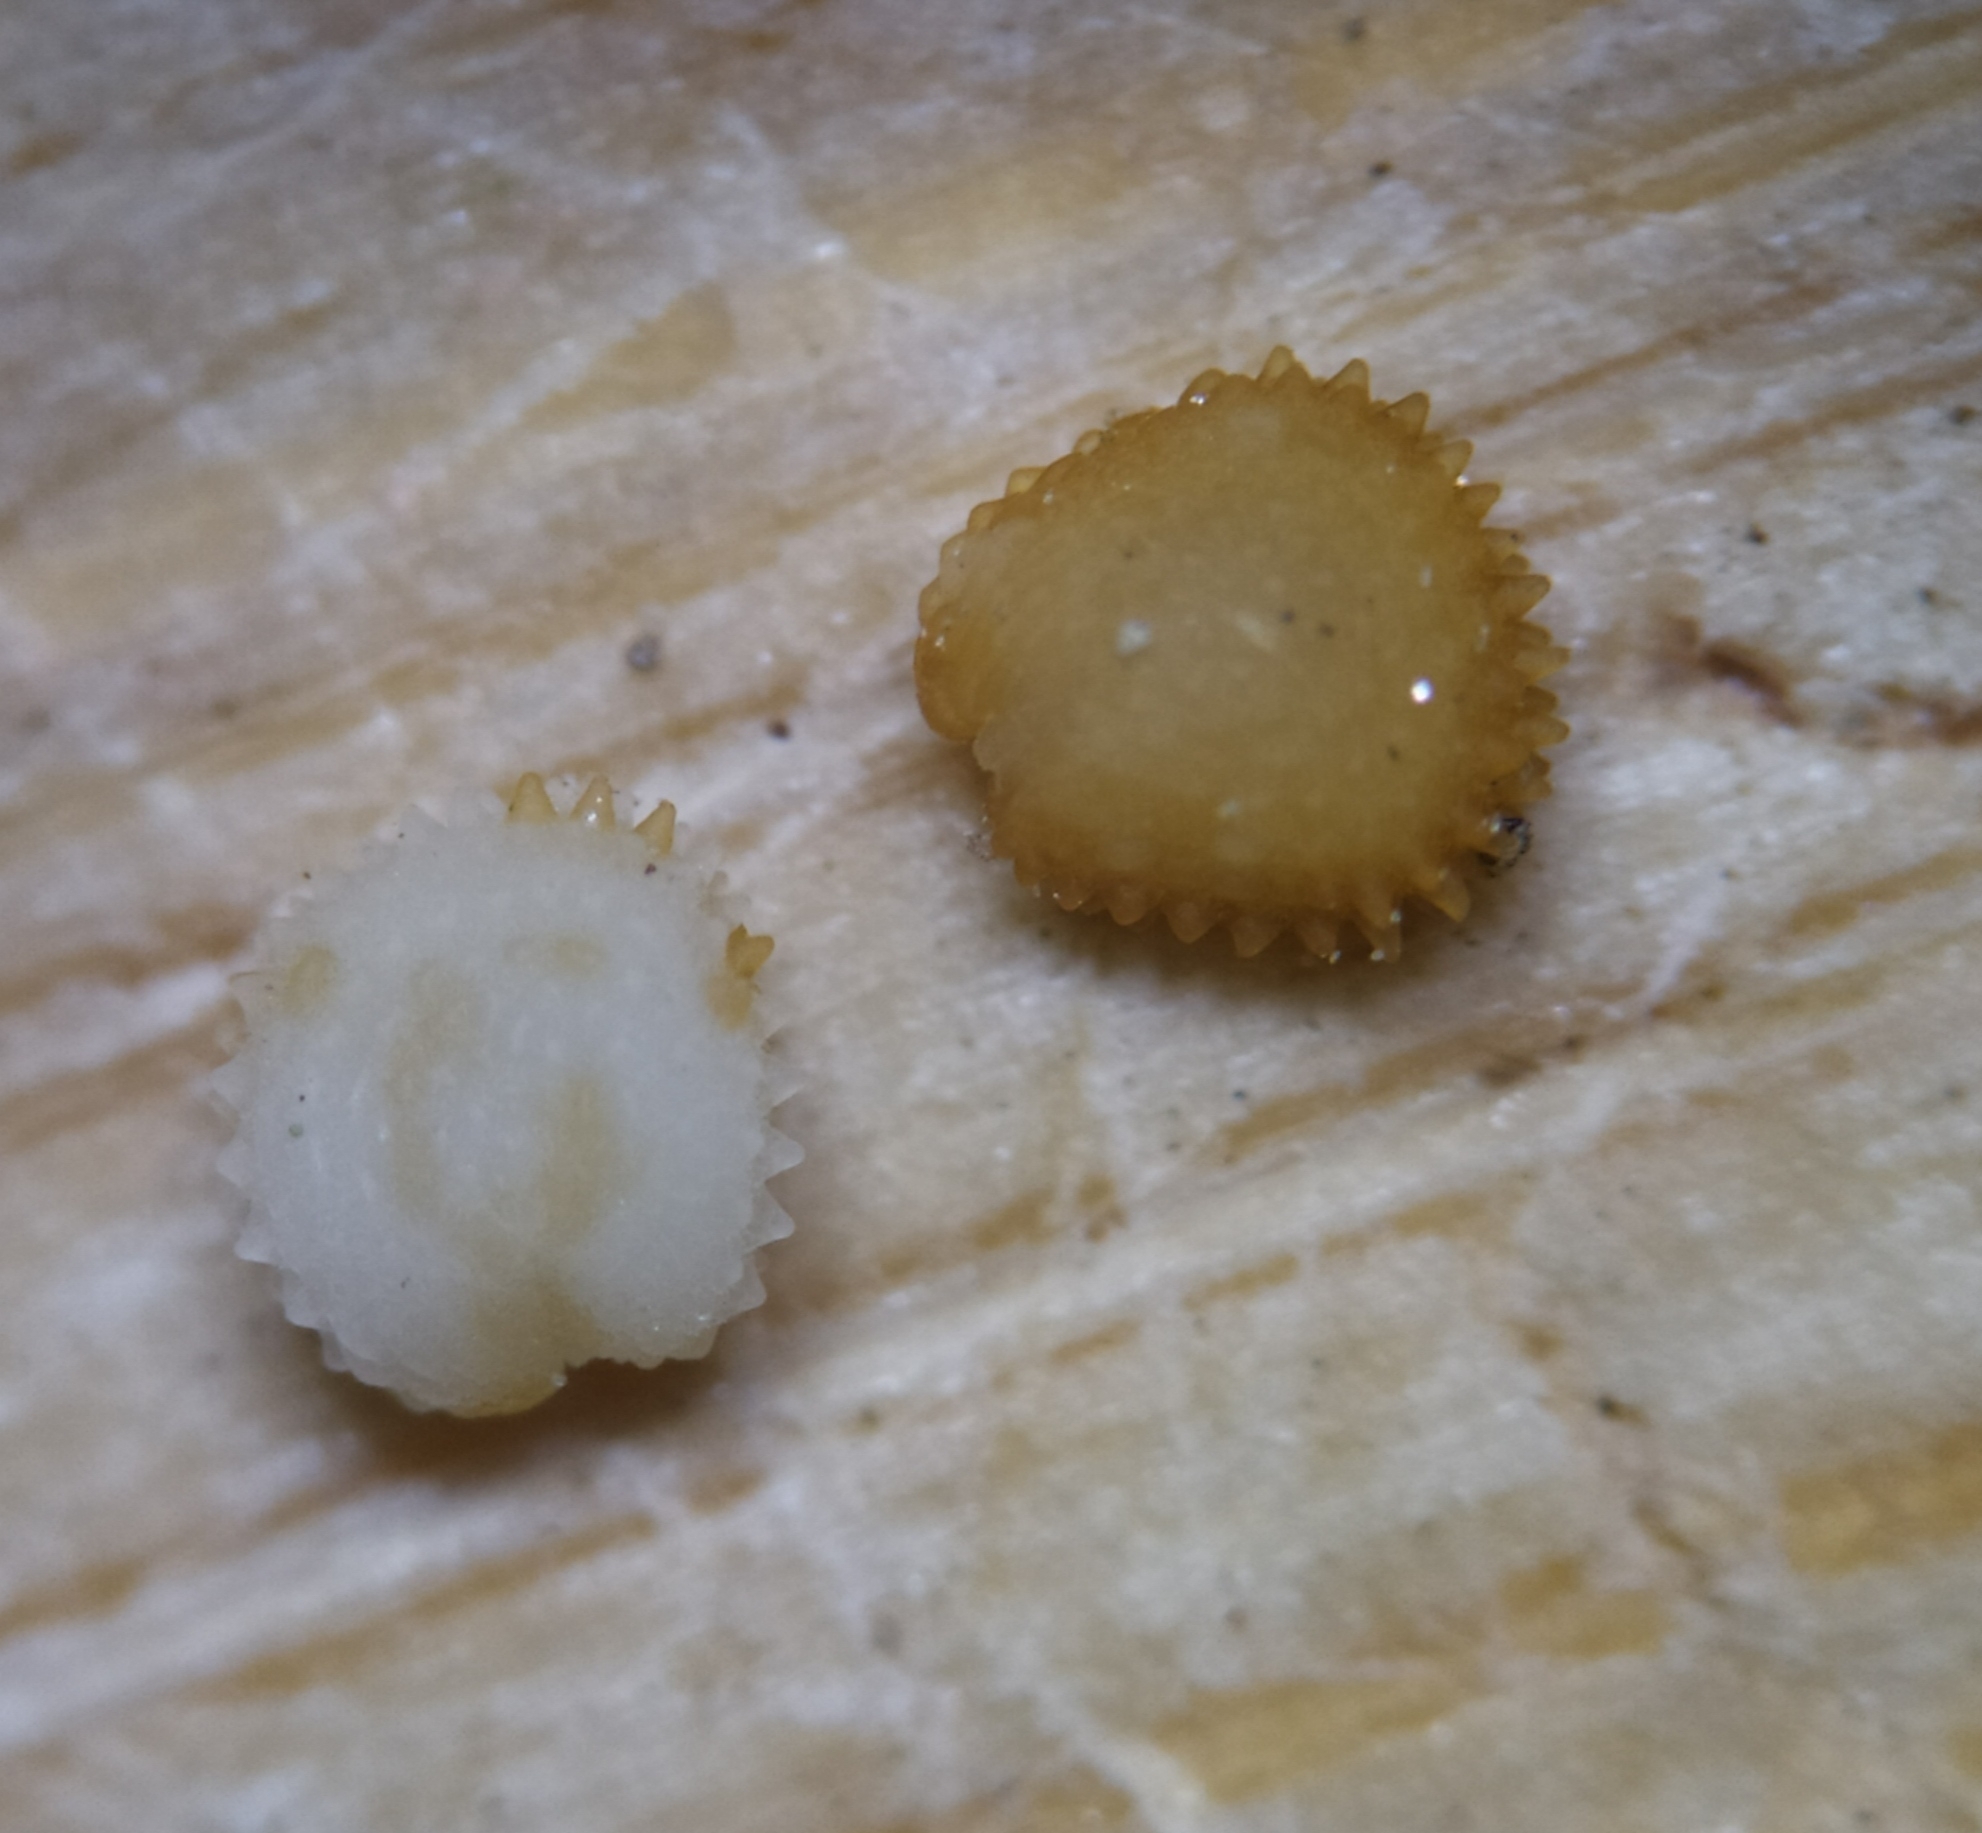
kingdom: Plantae
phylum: Tracheophyta
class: Magnoliopsida
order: Caryophyllales
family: Caryophyllaceae
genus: Stellaria
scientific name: Stellaria ruderalis
